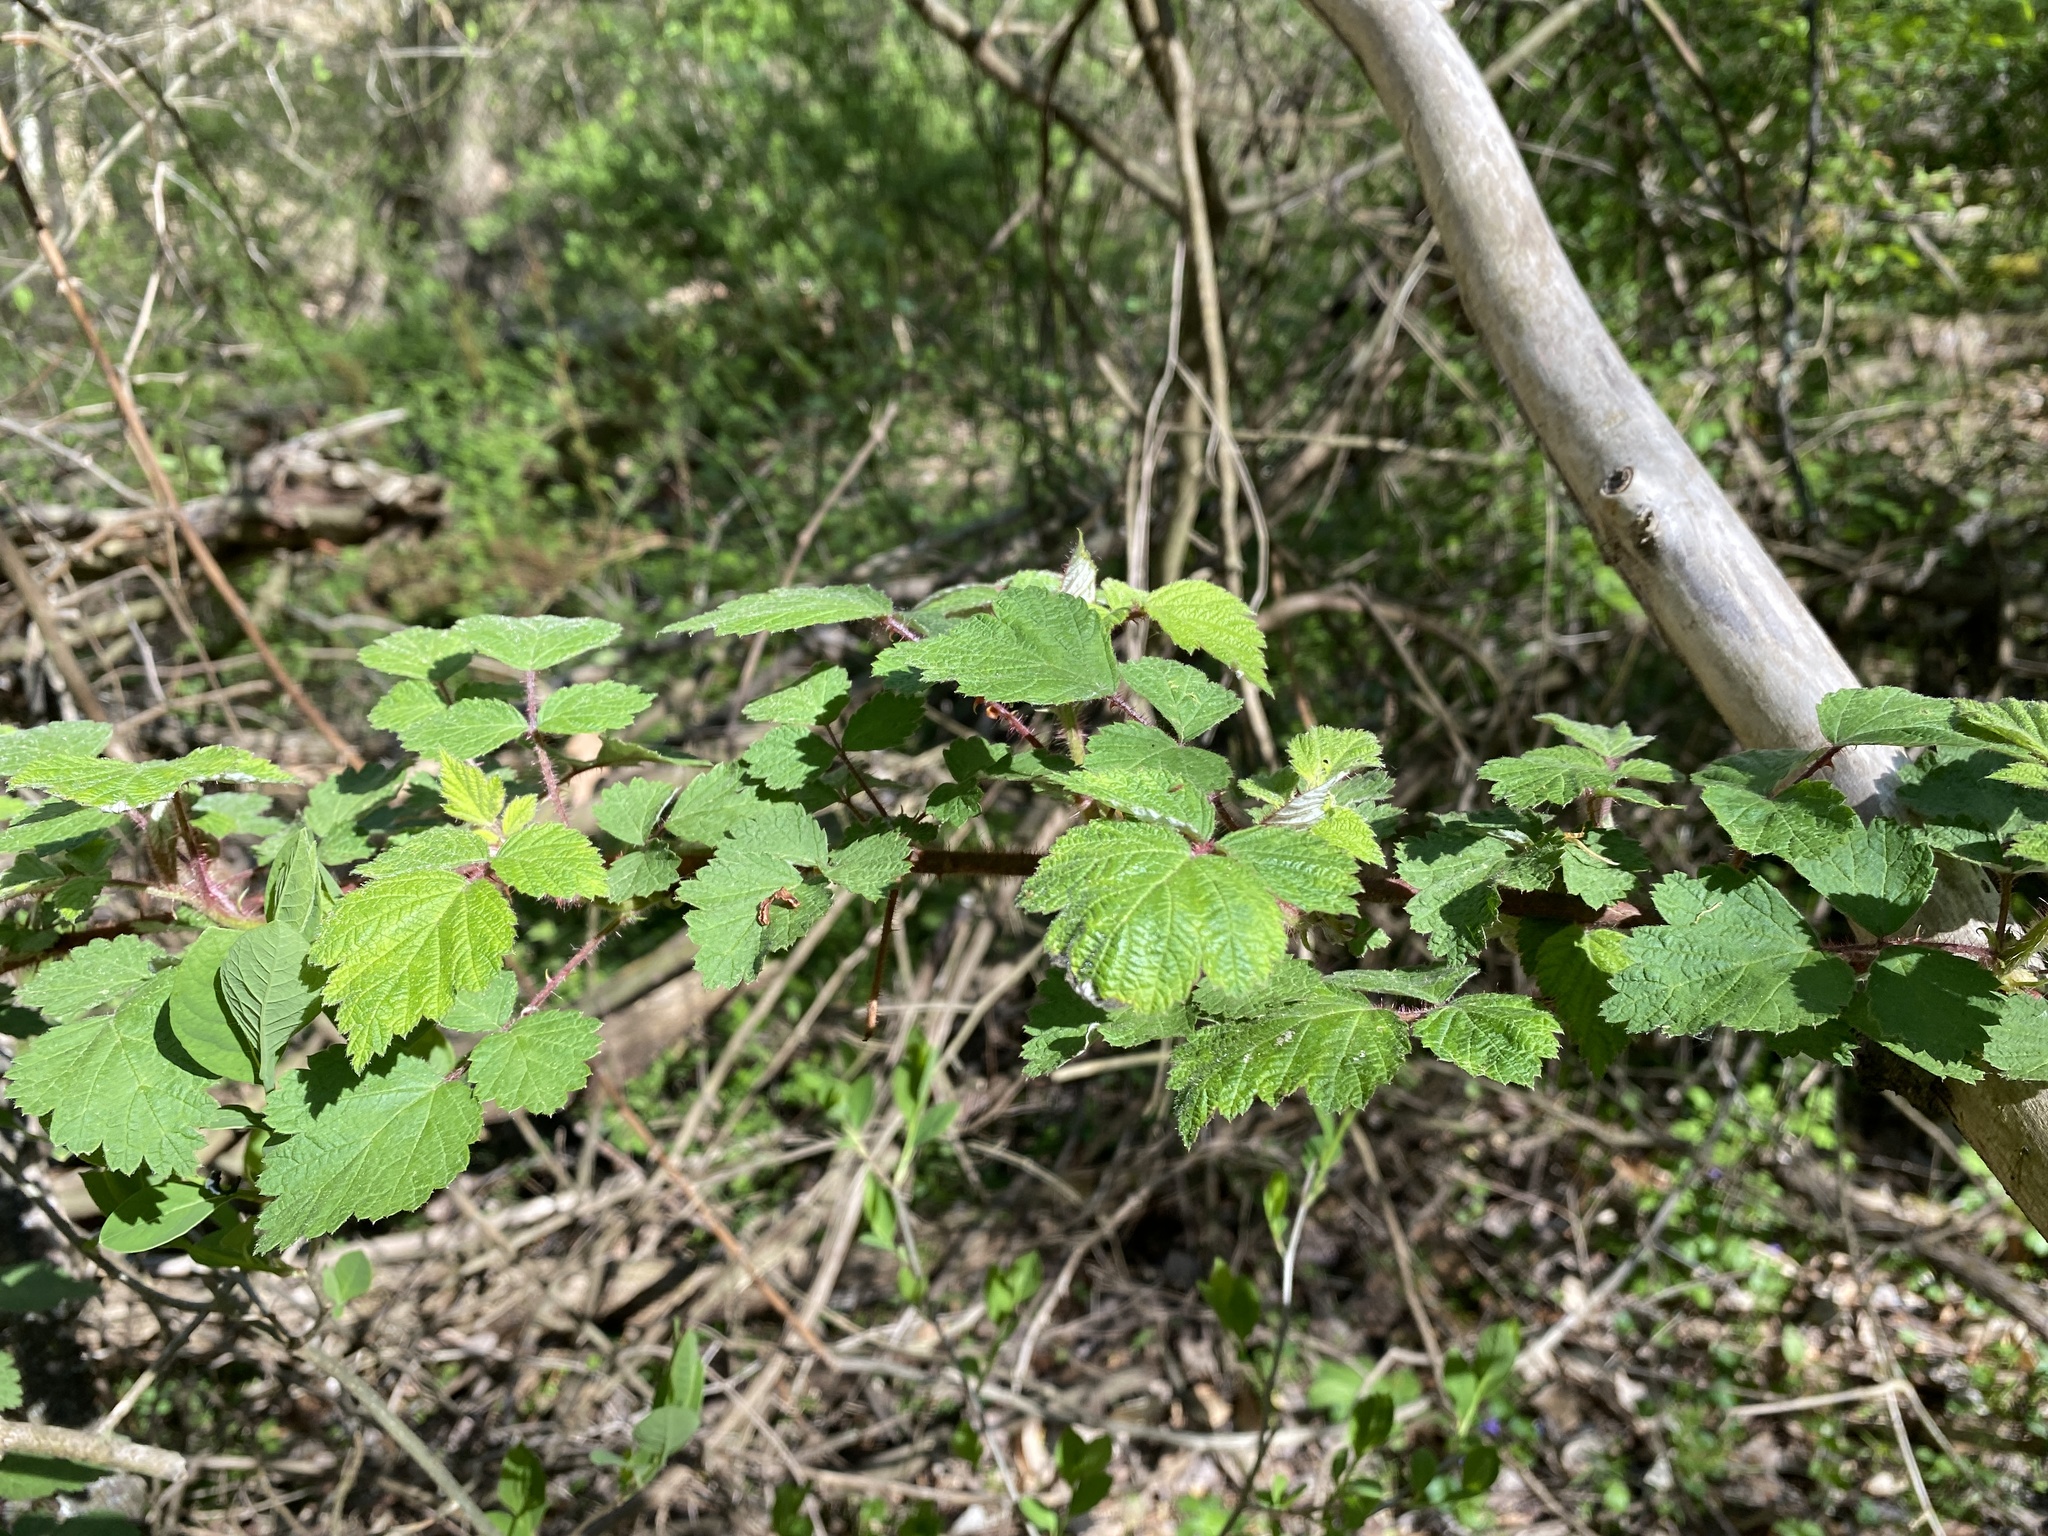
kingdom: Plantae
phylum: Tracheophyta
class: Magnoliopsida
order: Rosales
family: Rosaceae
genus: Rubus
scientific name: Rubus phoenicolasius
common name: Japanese wineberry
